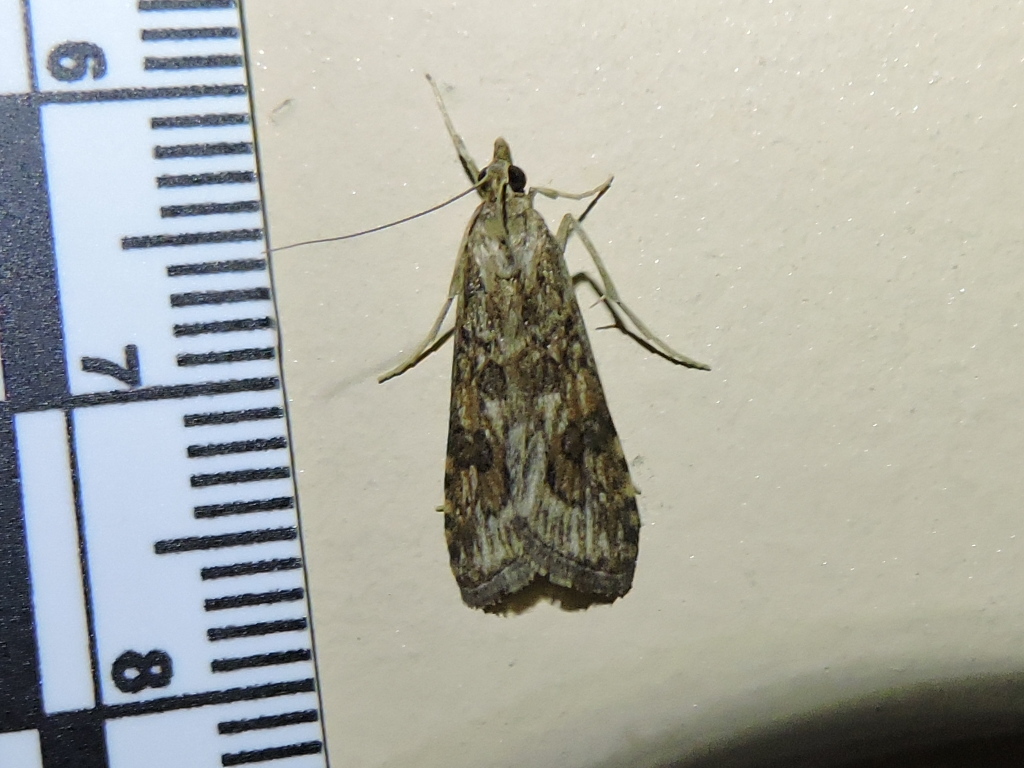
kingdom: Animalia
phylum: Arthropoda
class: Insecta
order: Lepidoptera
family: Crambidae
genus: Nomophila
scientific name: Nomophila nearctica
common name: American rush veneer
